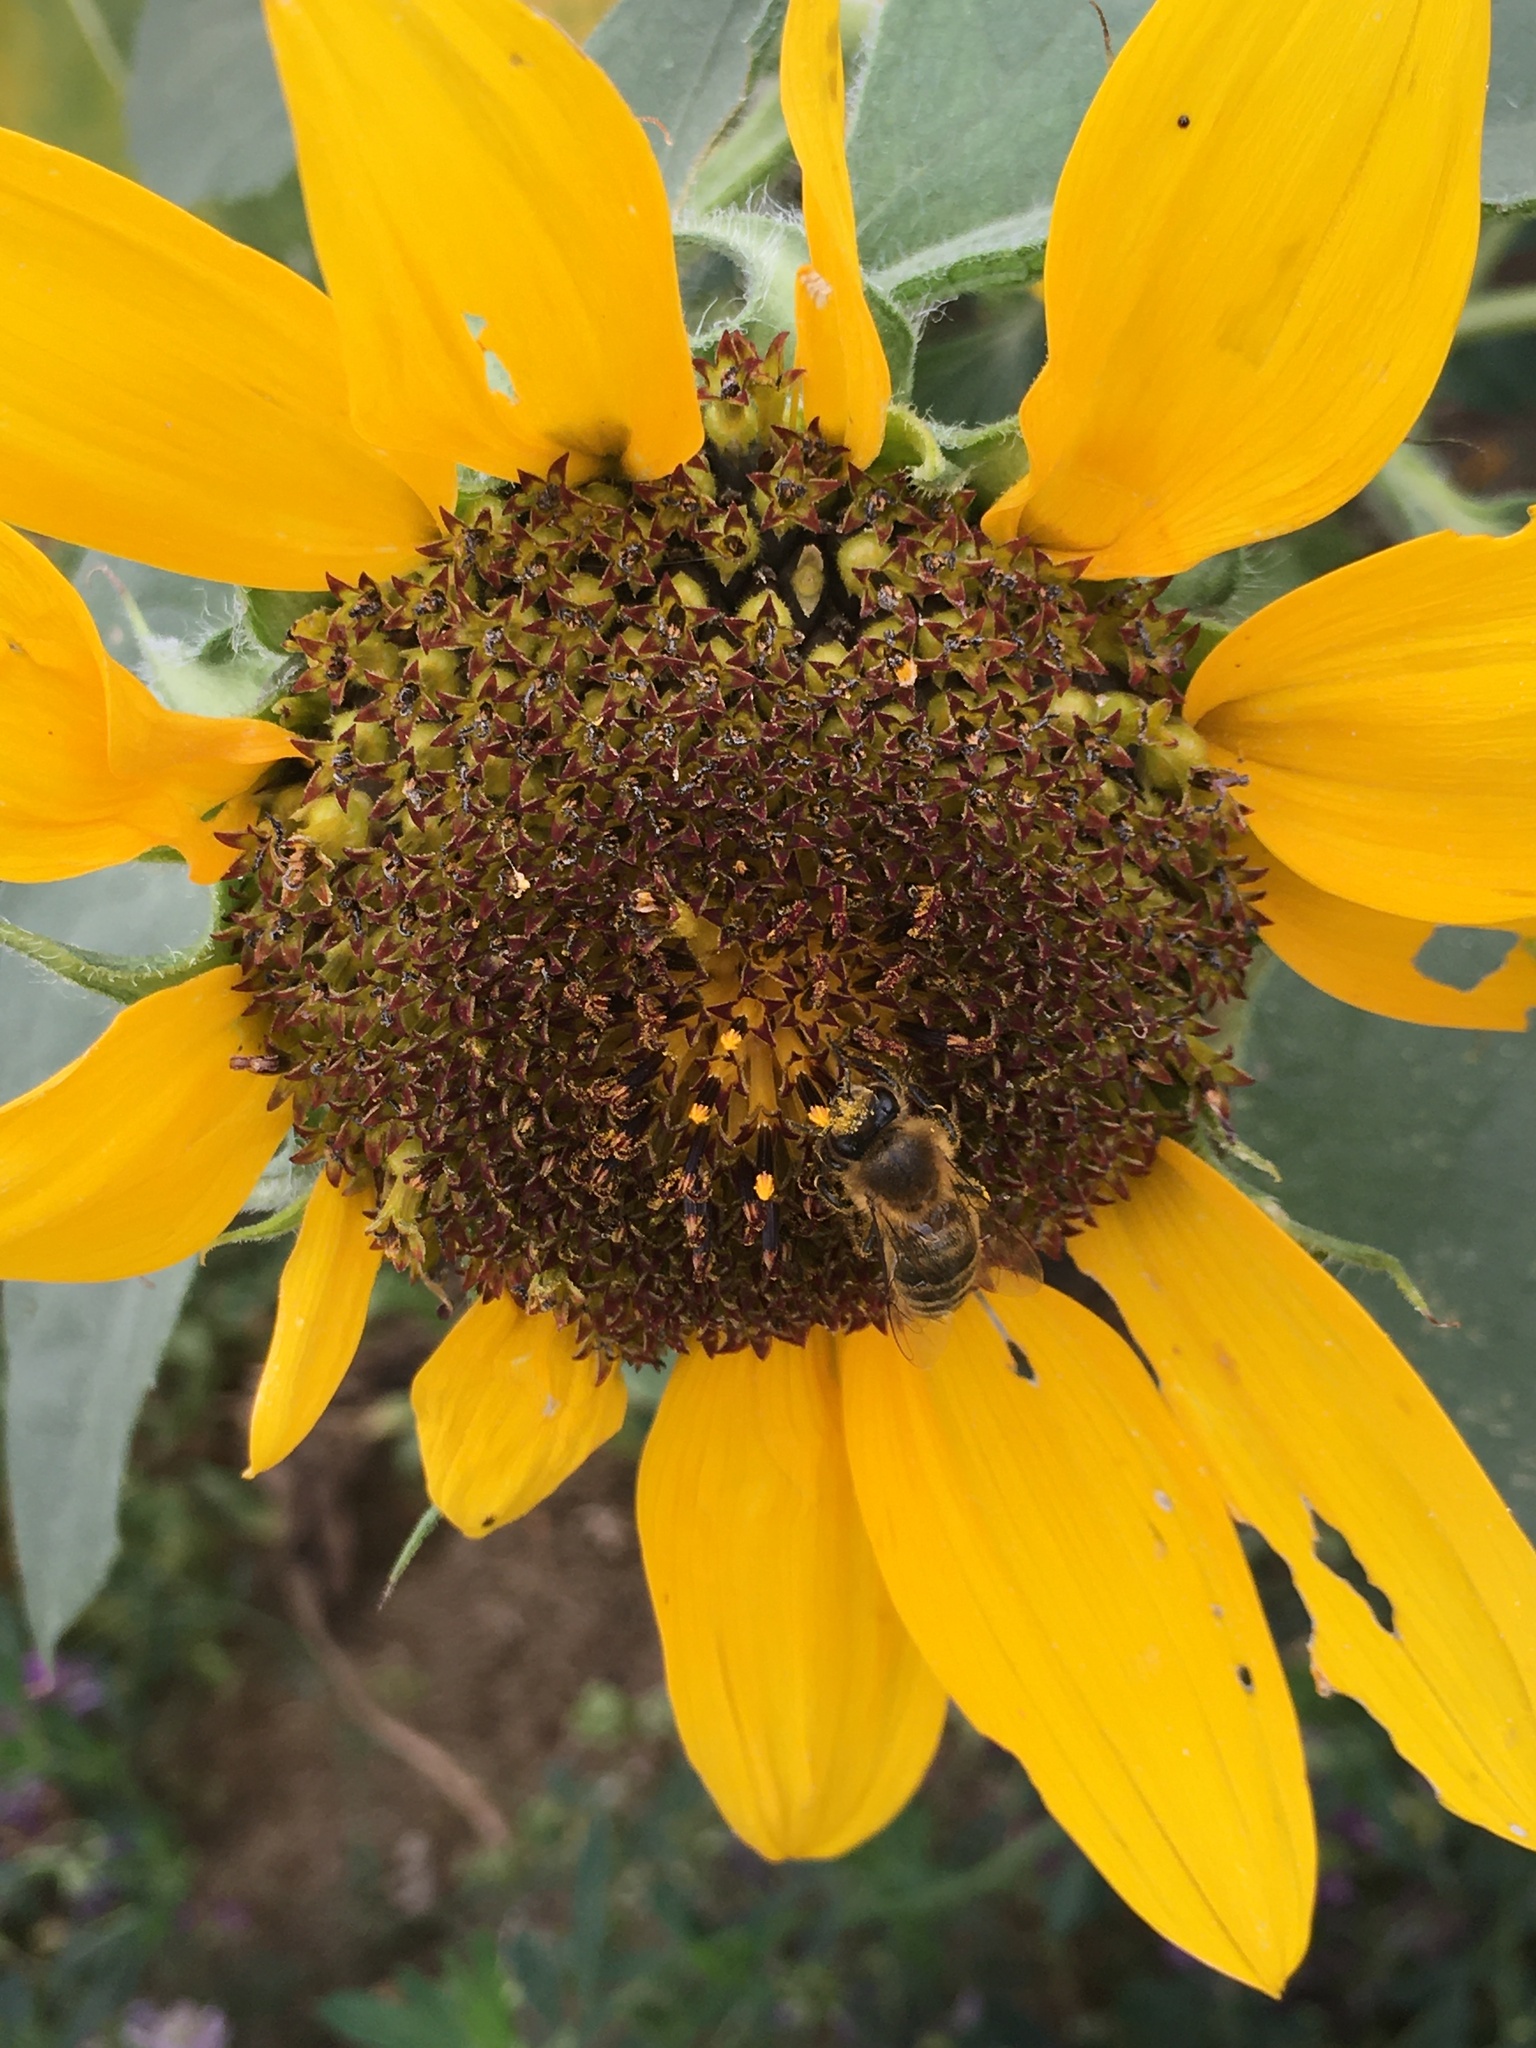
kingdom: Animalia
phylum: Arthropoda
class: Insecta
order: Hymenoptera
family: Apidae
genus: Apis
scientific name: Apis mellifera
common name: Honey bee
